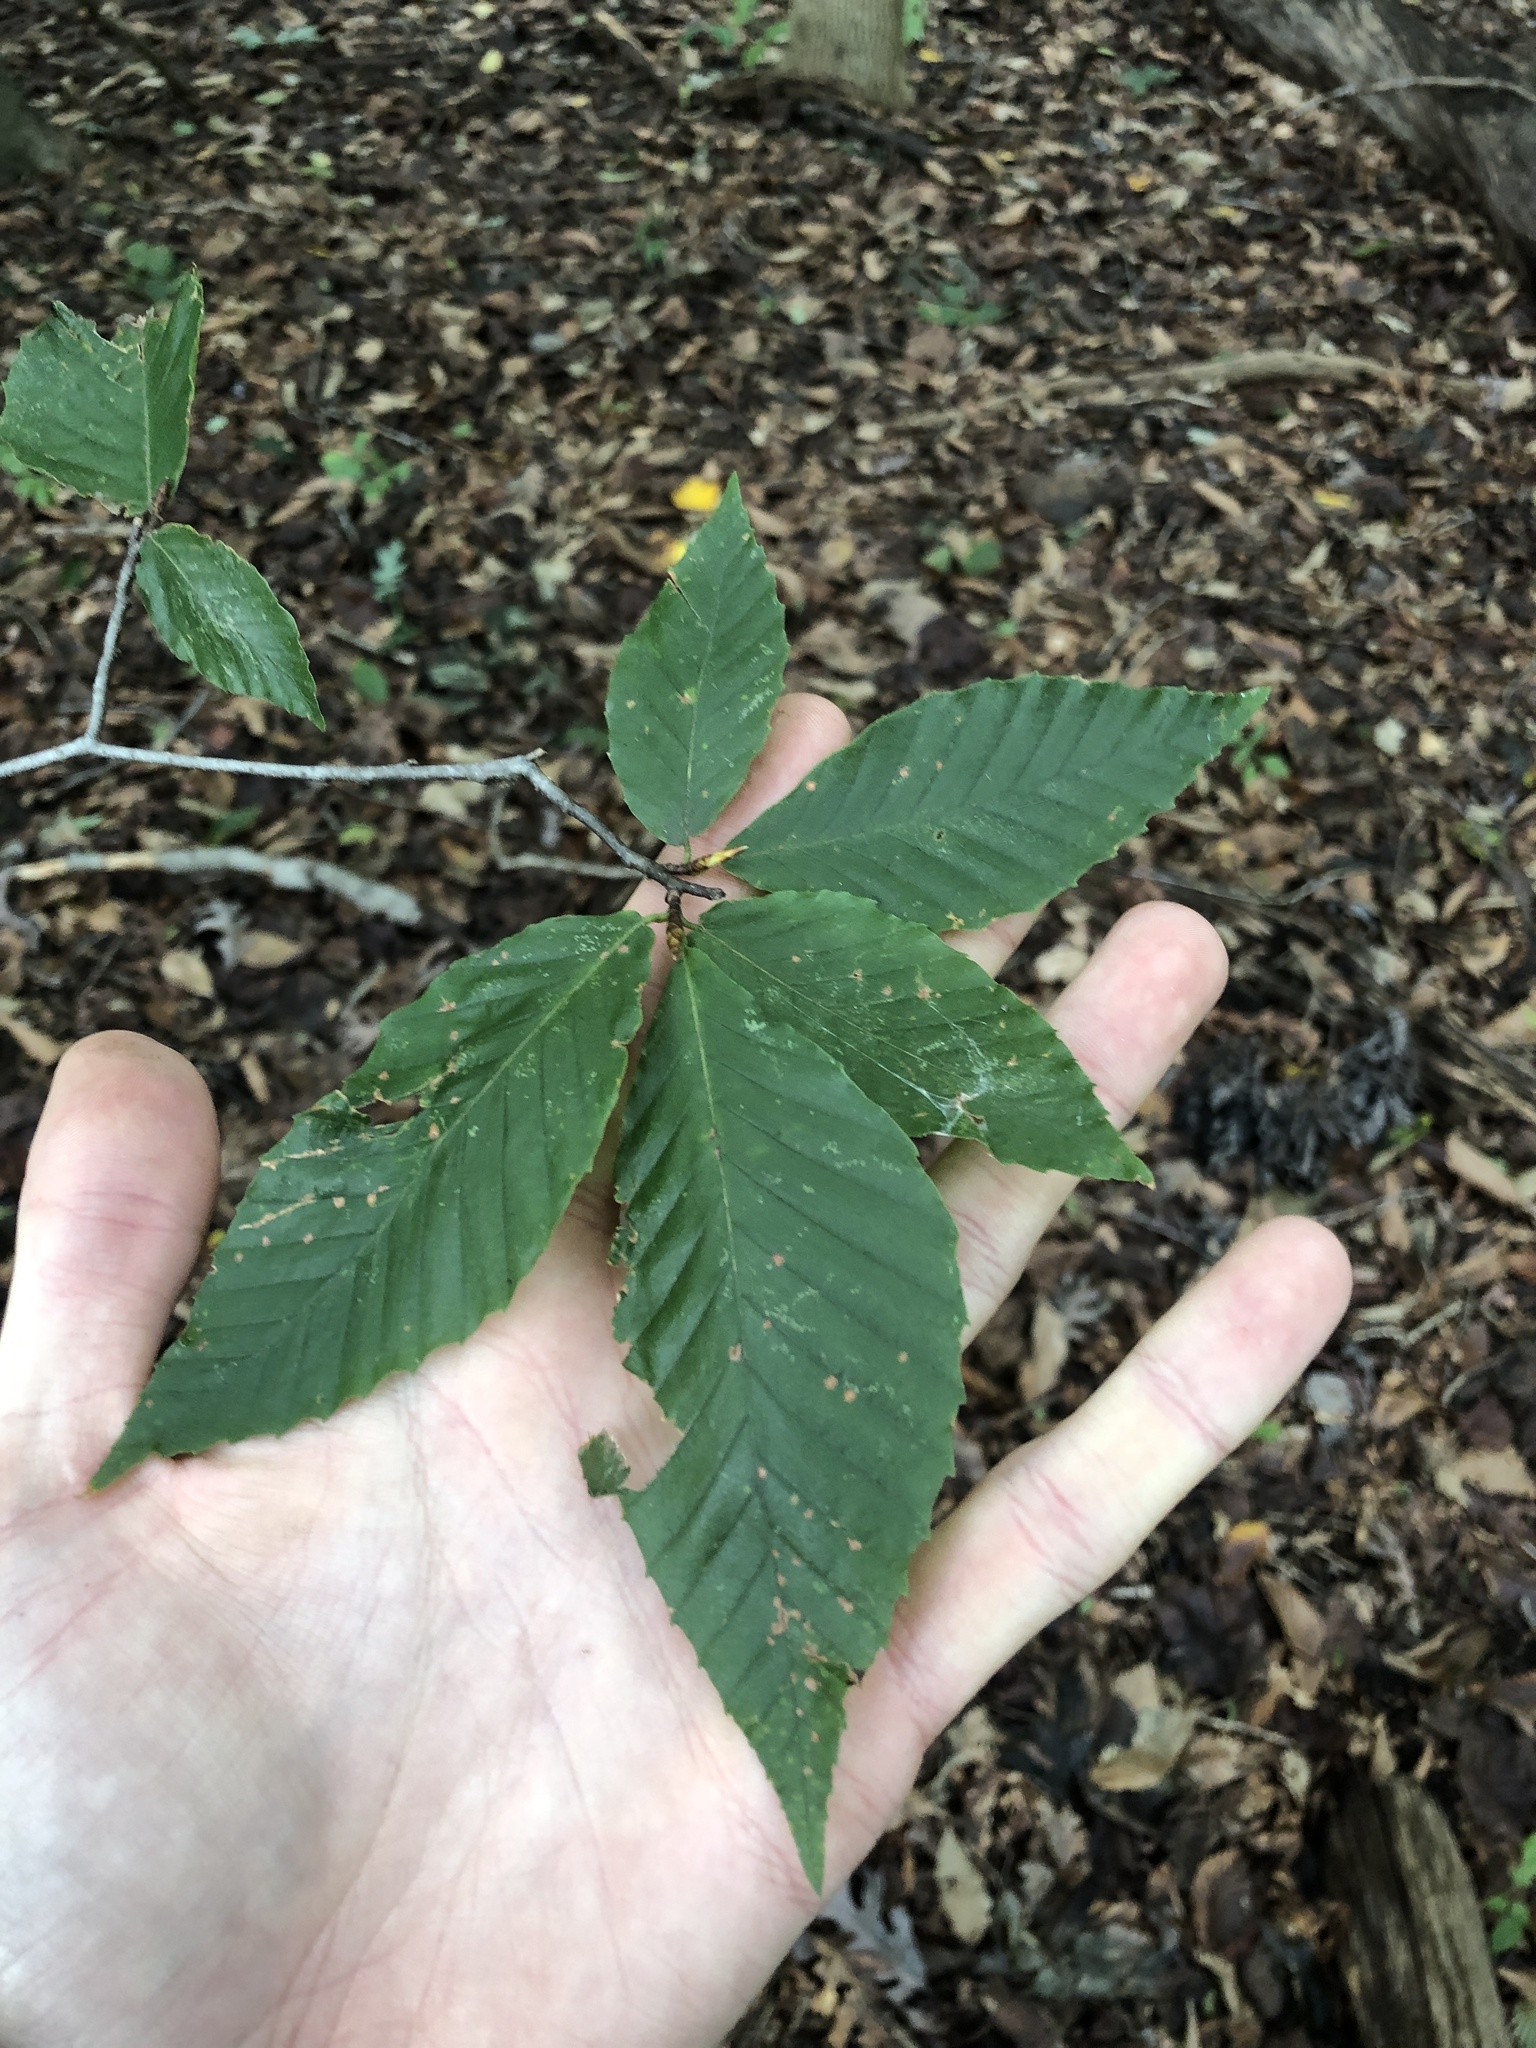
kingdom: Plantae
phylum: Tracheophyta
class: Magnoliopsida
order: Fagales
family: Fagaceae
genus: Fagus
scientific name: Fagus grandifolia
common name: American beech
